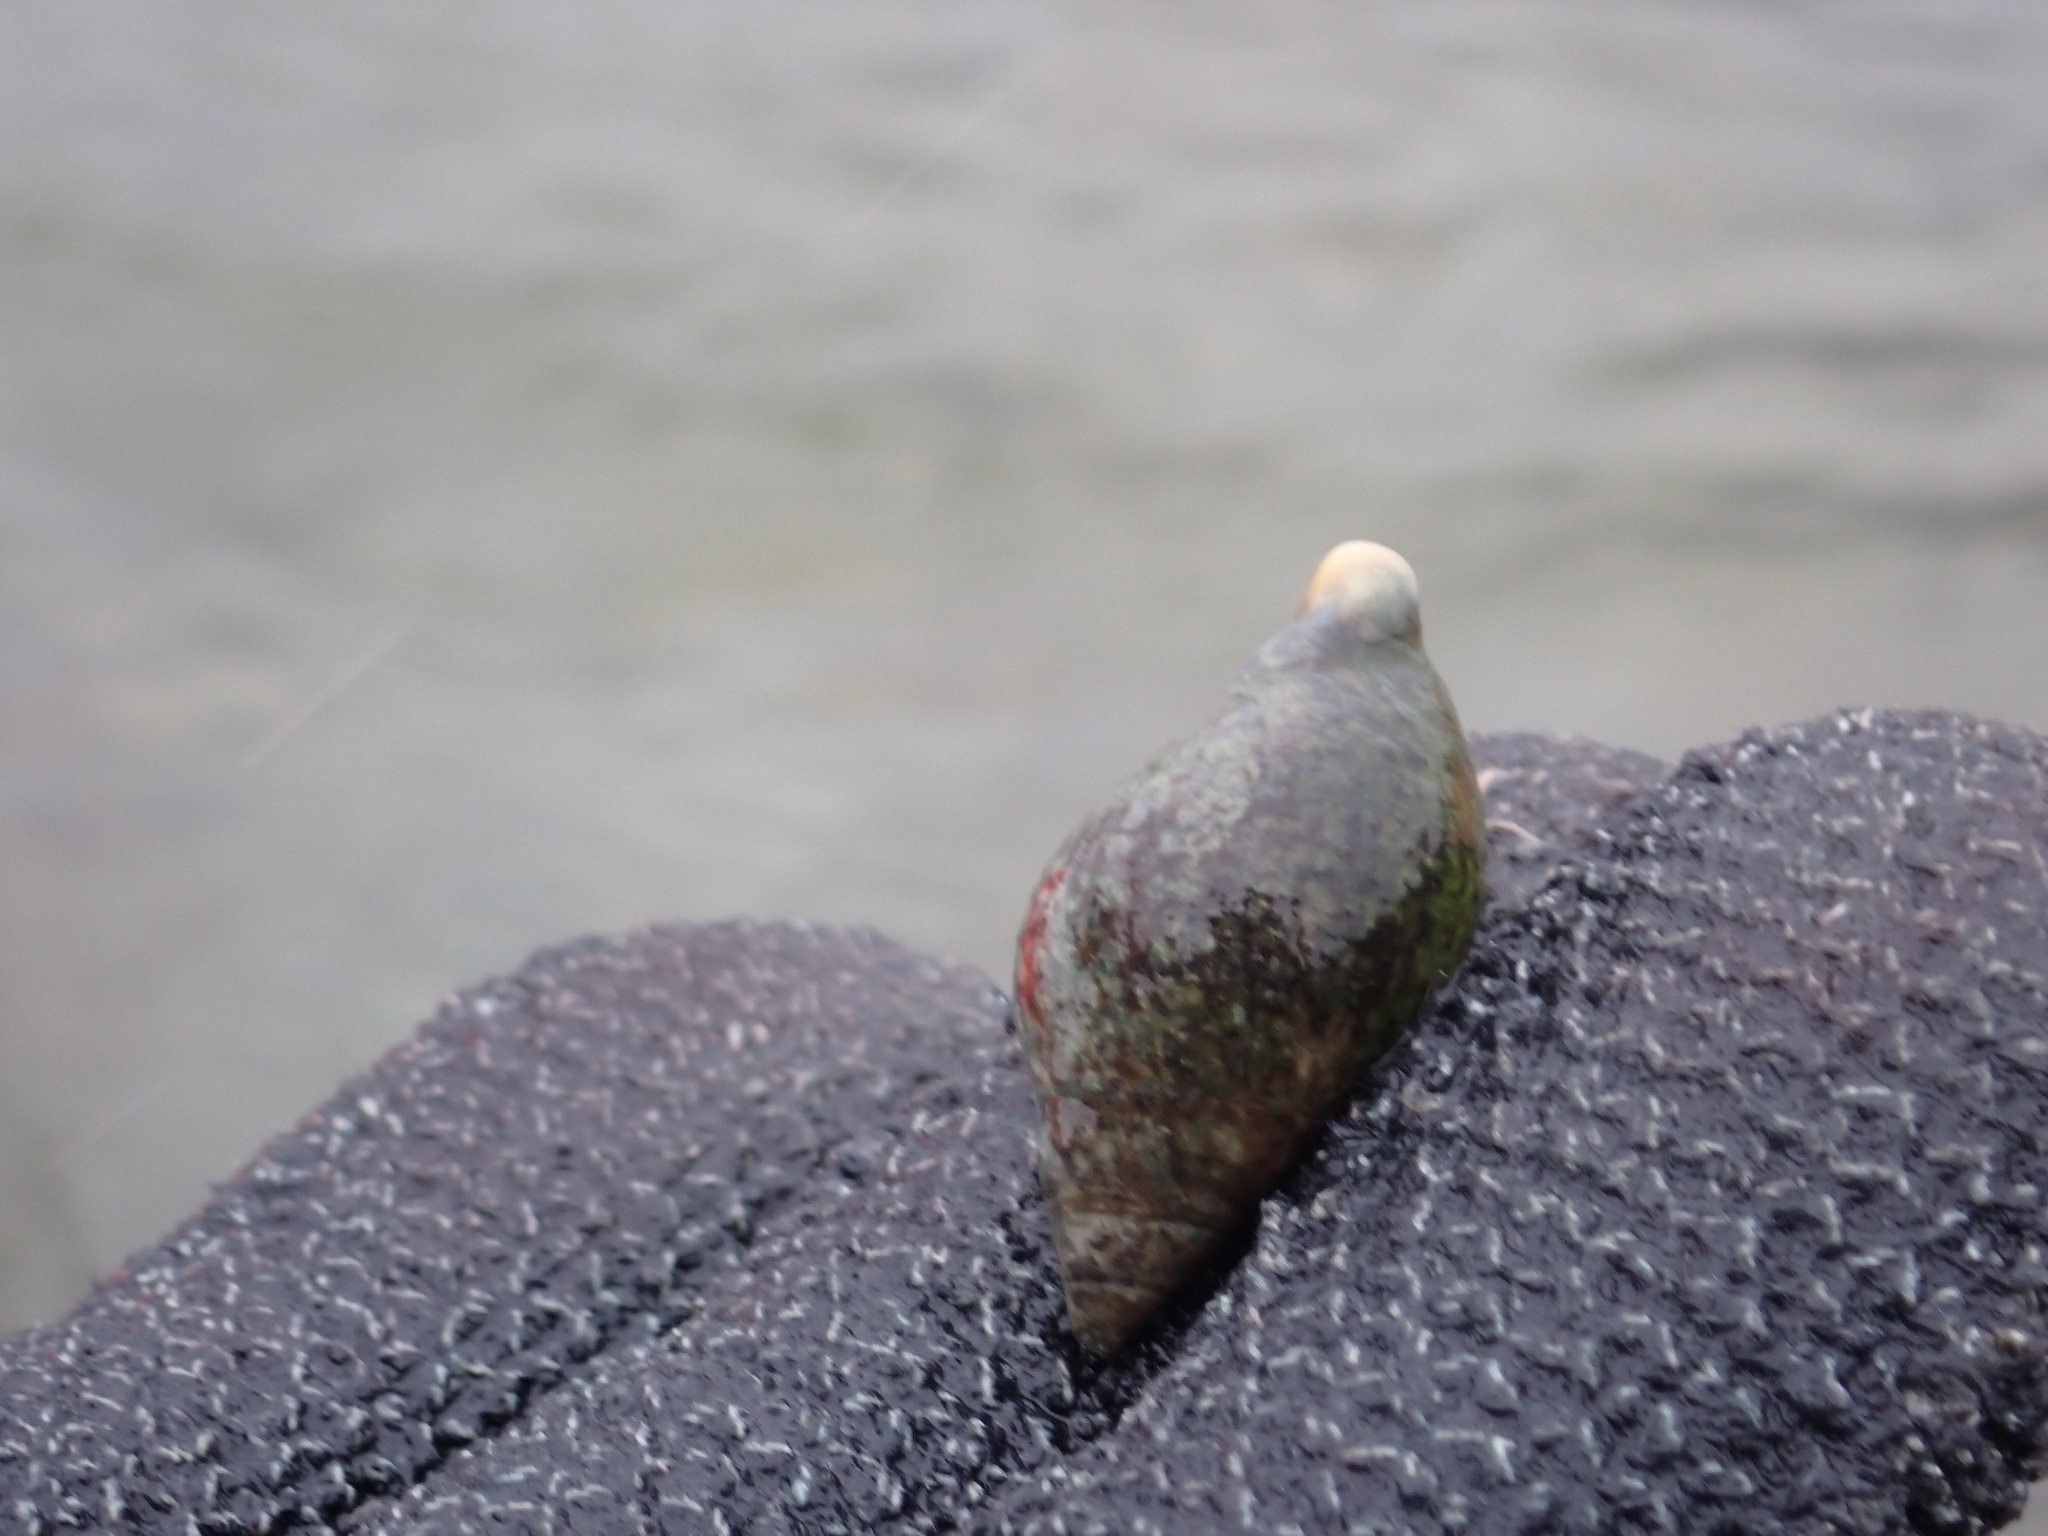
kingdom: Animalia
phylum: Mollusca
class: Gastropoda
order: Neogastropoda
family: Cominellidae
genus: Cominella
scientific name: Cominella maculosa
